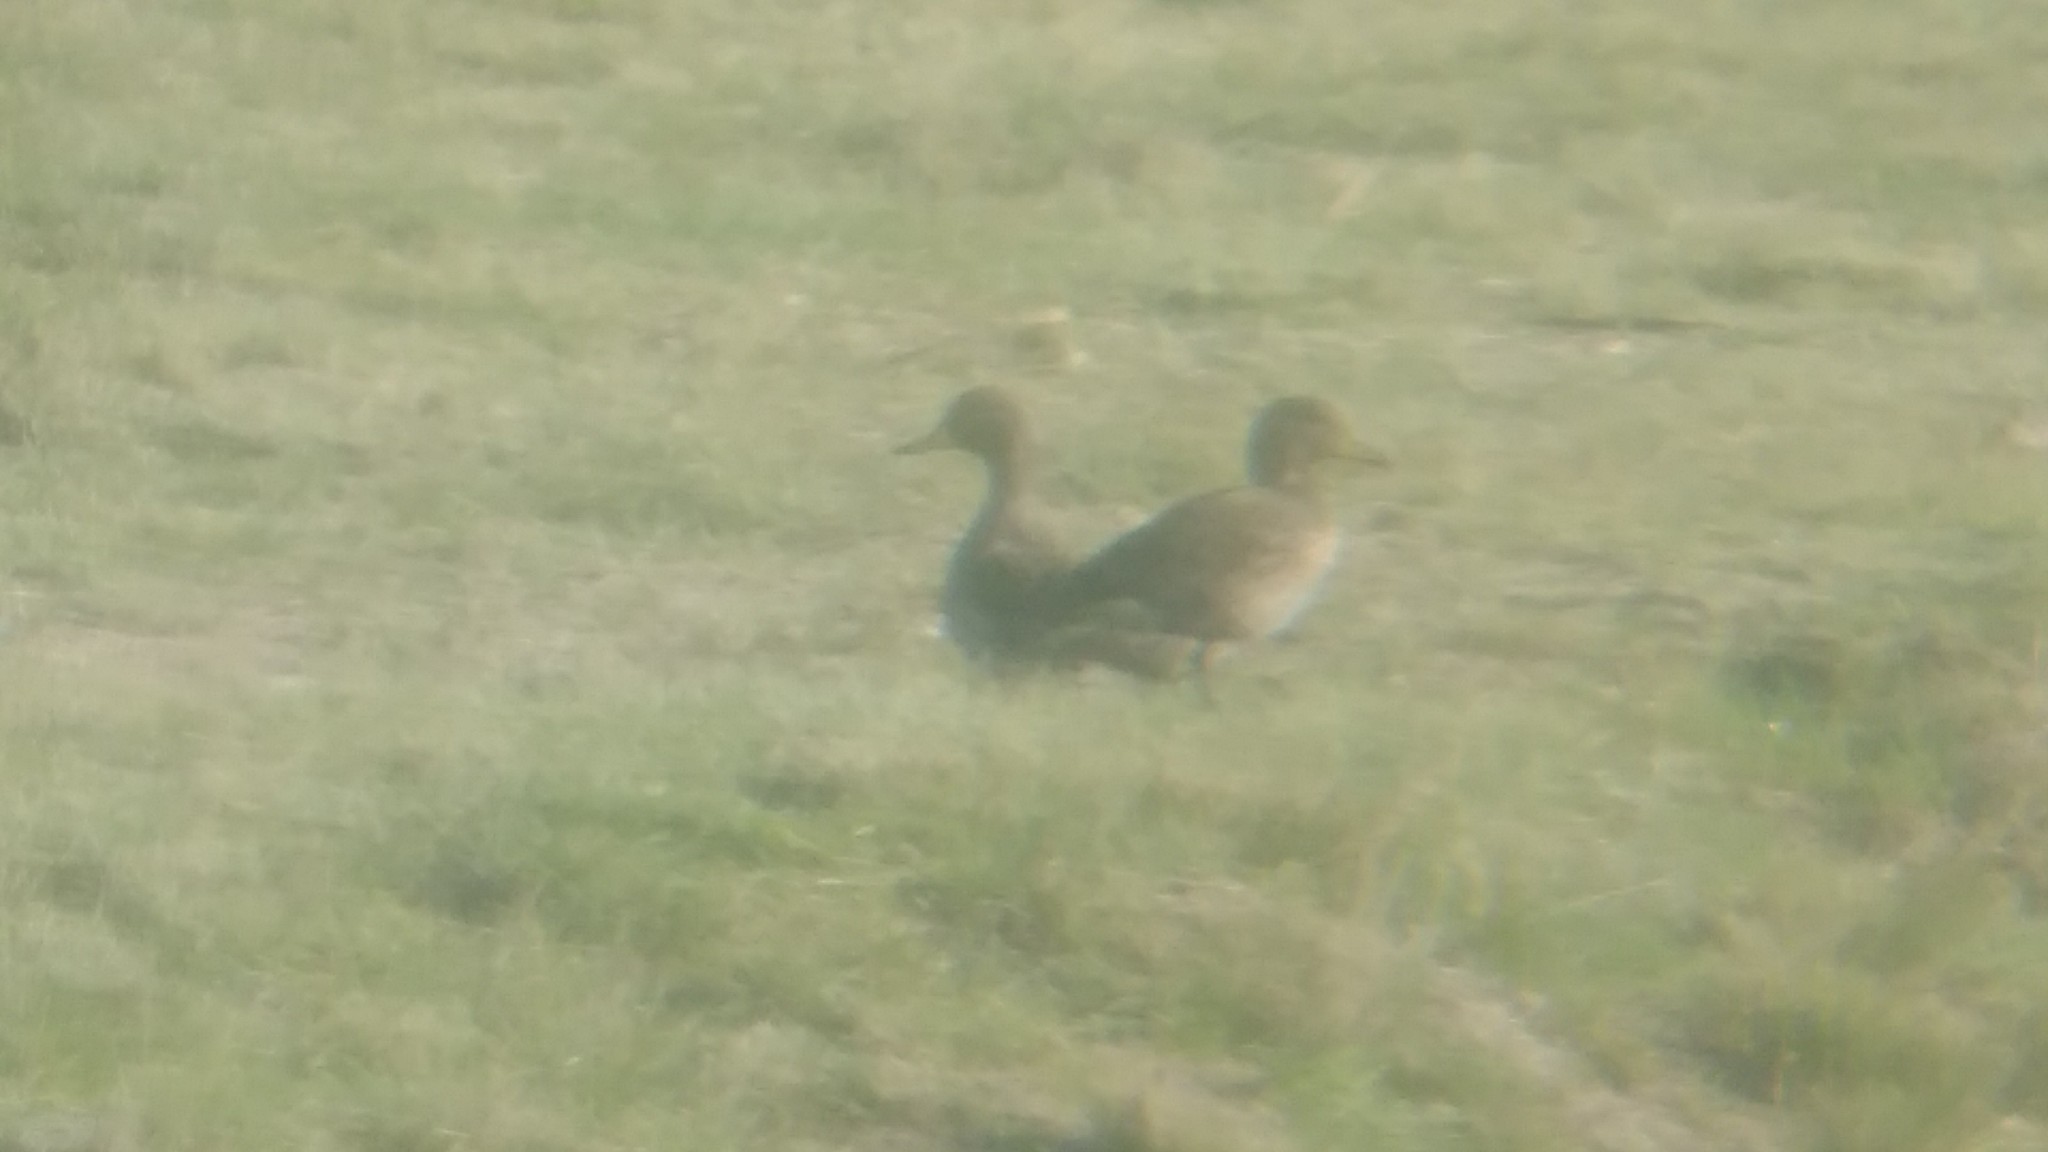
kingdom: Animalia
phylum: Chordata
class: Aves
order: Anseriformes
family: Anatidae
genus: Anas
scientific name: Anas flavirostris
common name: Yellow-billed teal
